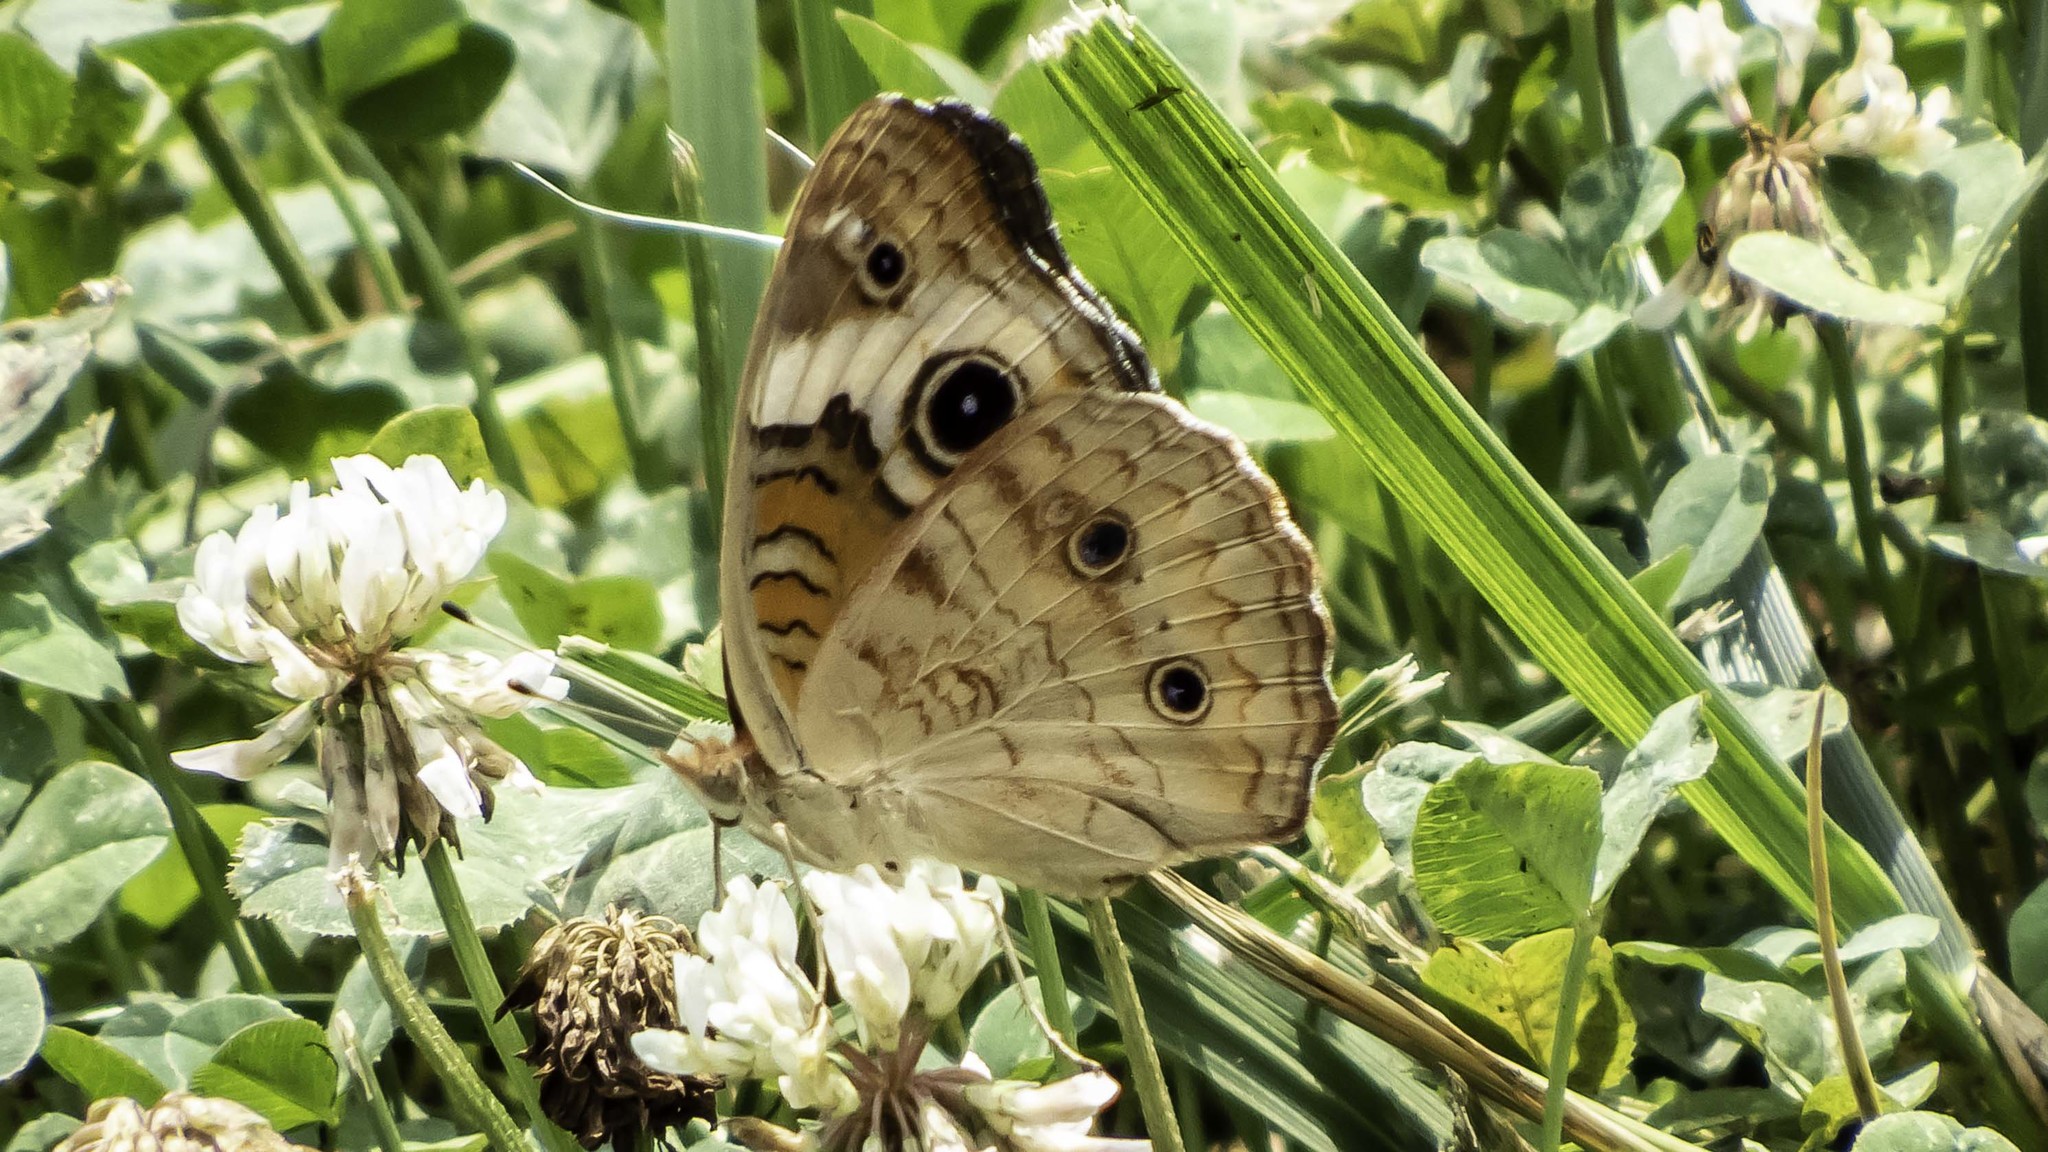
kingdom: Animalia
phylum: Arthropoda
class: Insecta
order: Lepidoptera
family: Nymphalidae
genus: Junonia
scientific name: Junonia coenia
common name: Common buckeye
